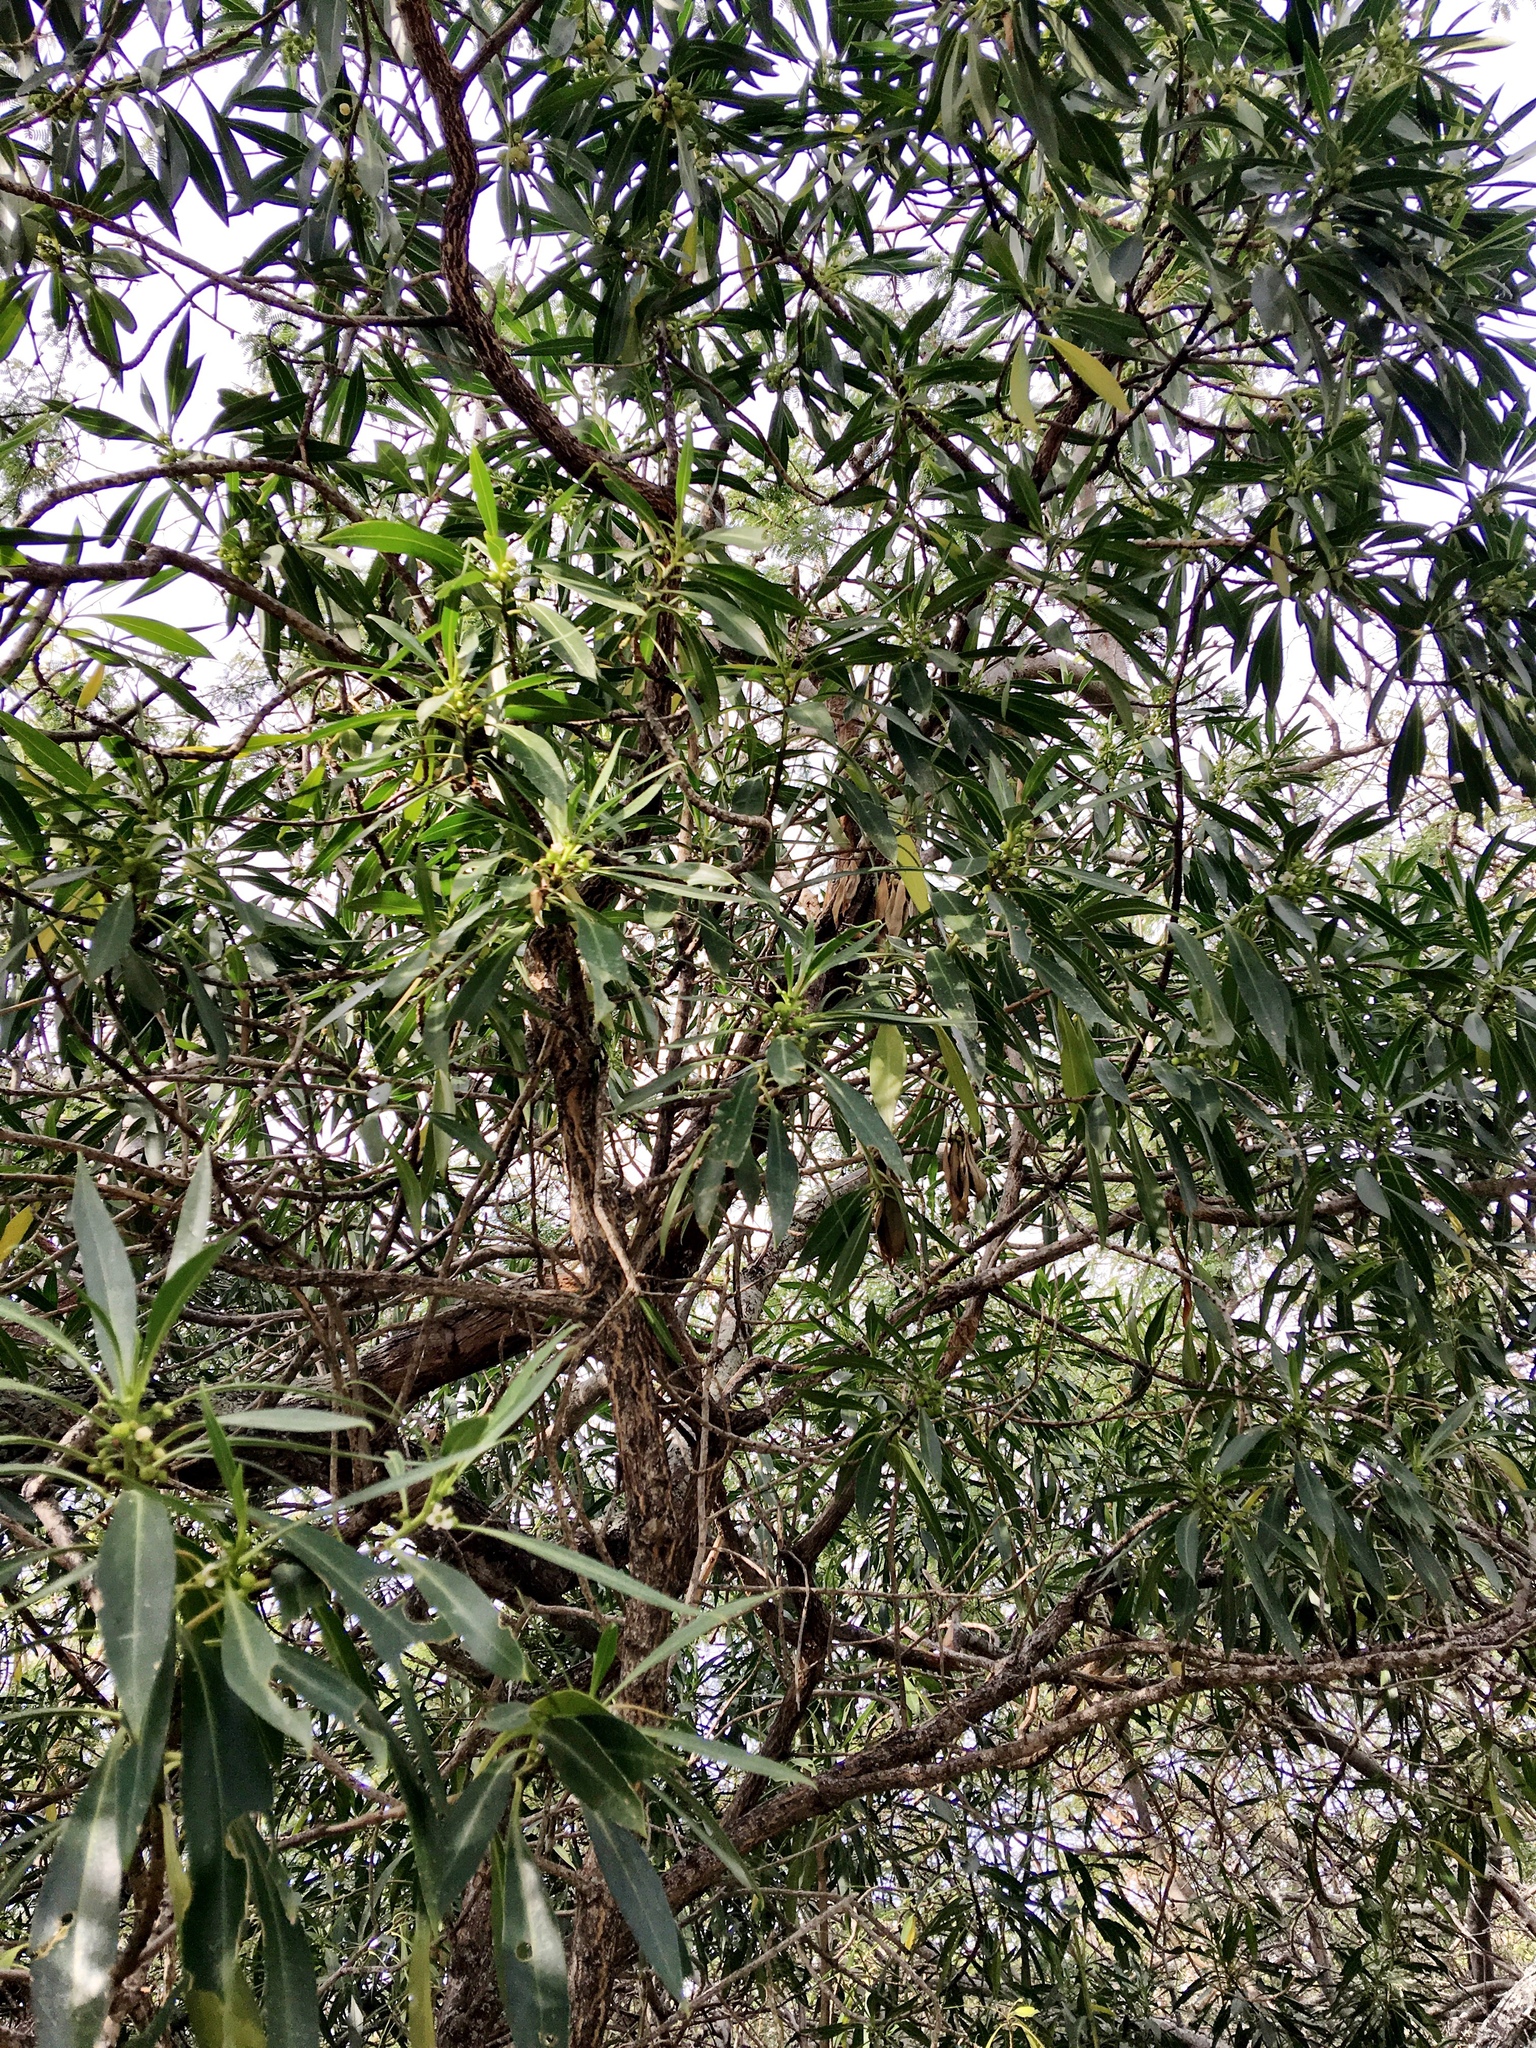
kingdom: Plantae
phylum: Tracheophyta
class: Magnoliopsida
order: Lamiales
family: Scrophulariaceae
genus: Myoporum
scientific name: Myoporum sandwicense
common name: Bastard-sandalwood
